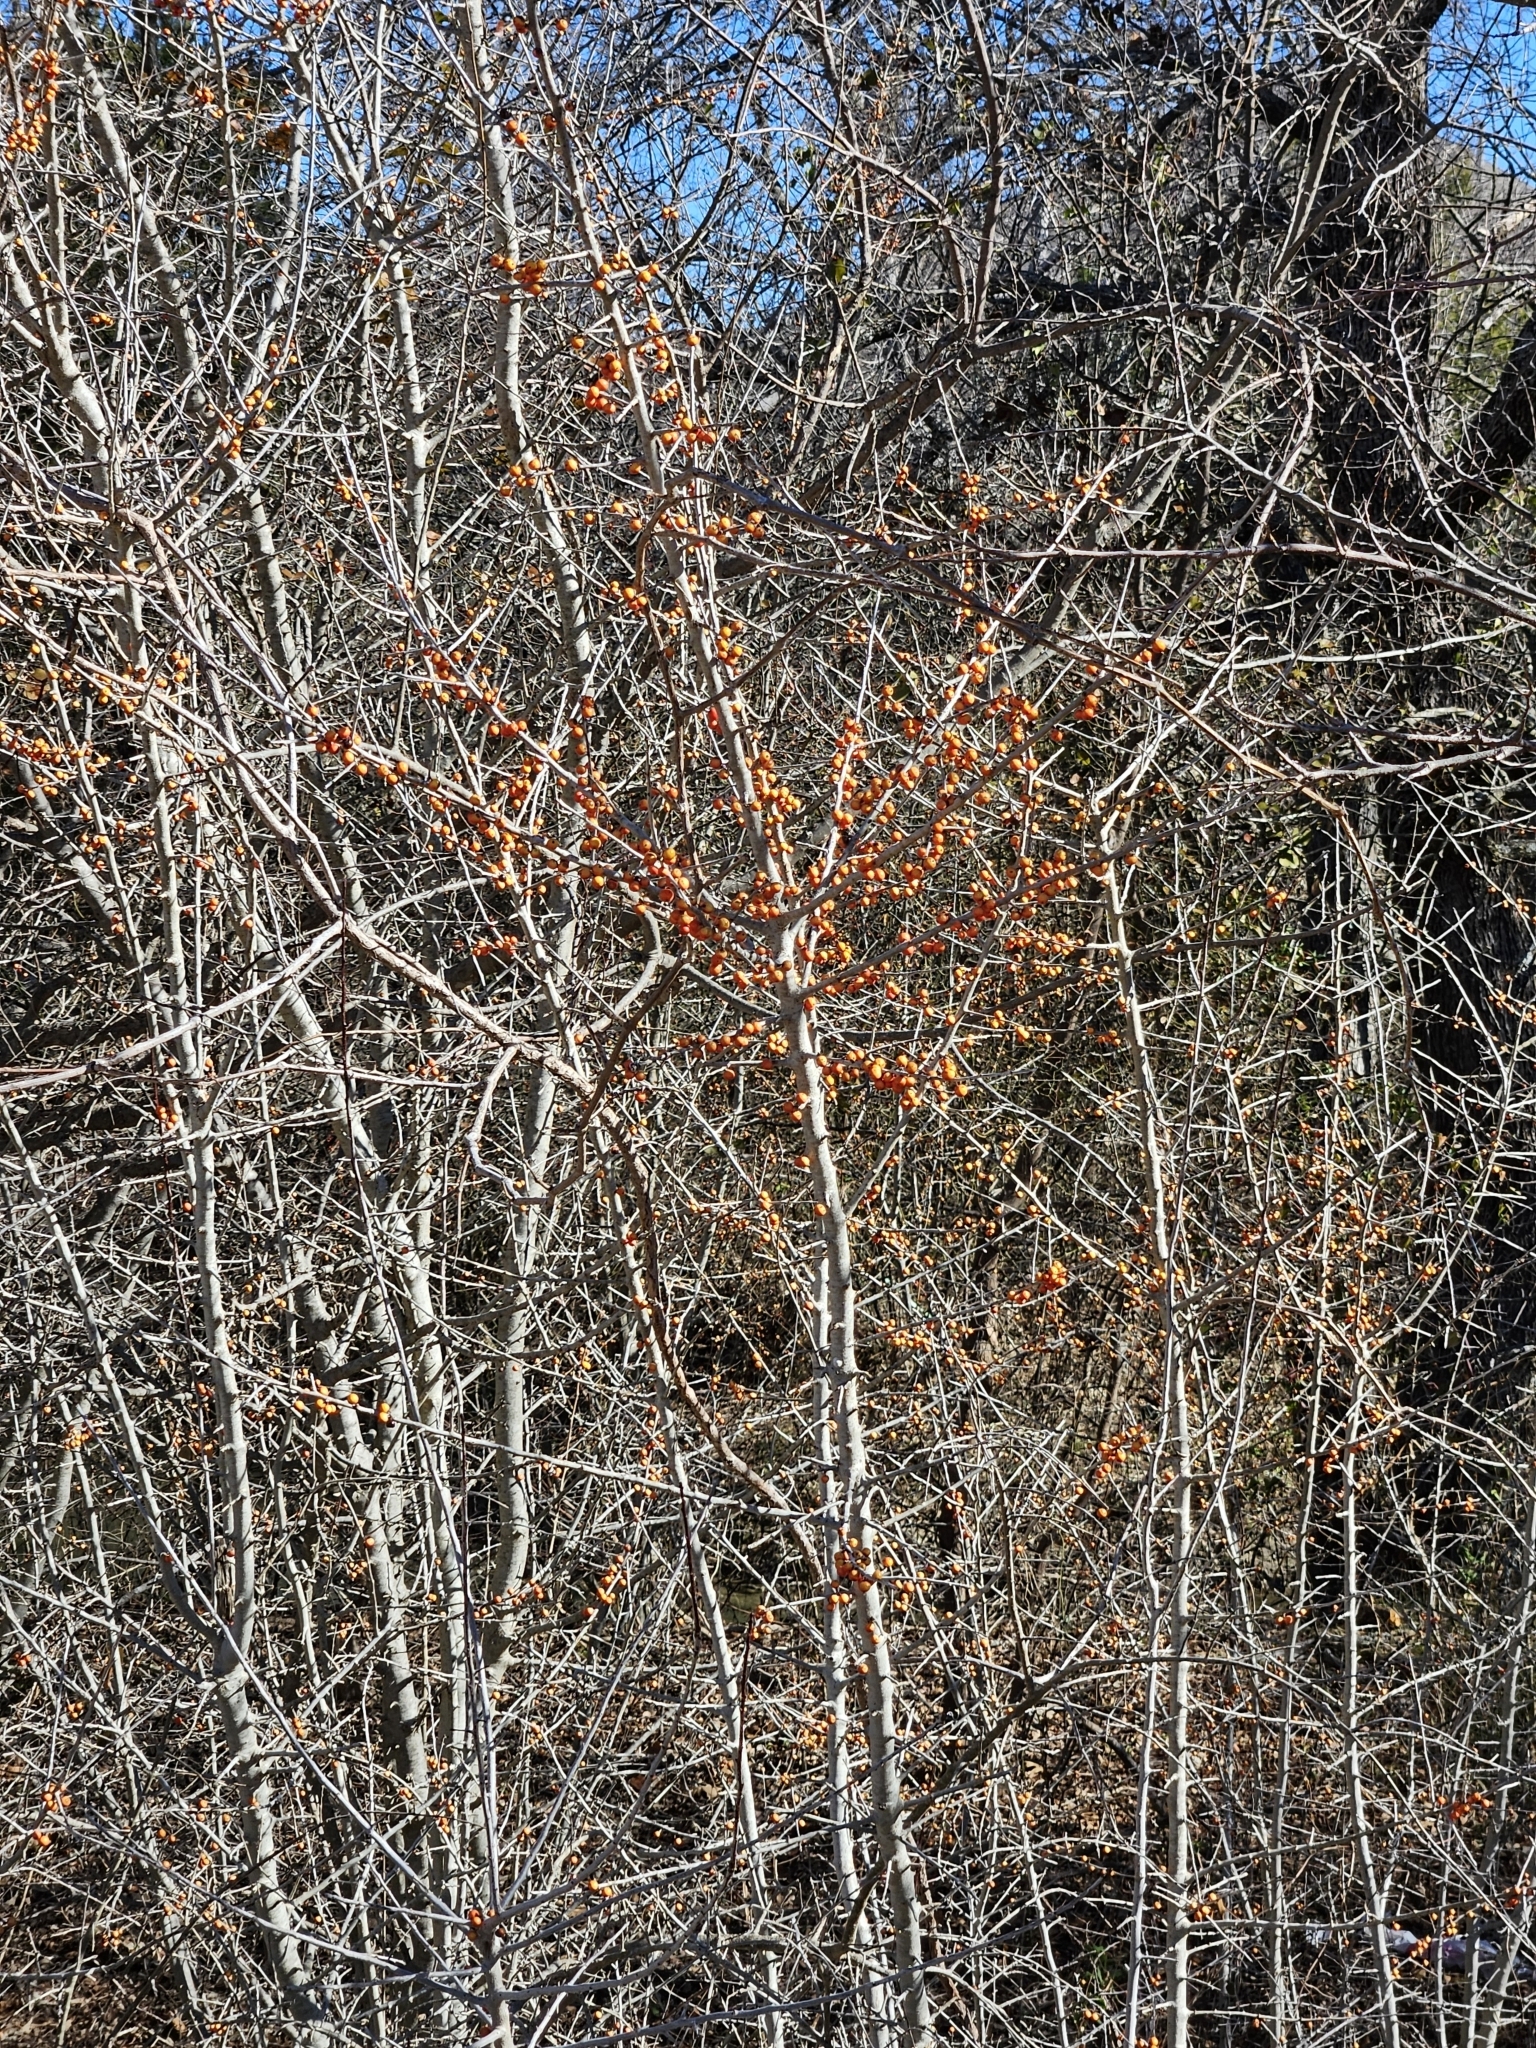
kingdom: Plantae
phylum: Tracheophyta
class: Magnoliopsida
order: Aquifoliales
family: Aquifoliaceae
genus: Ilex
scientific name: Ilex decidua
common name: Possum-haw
